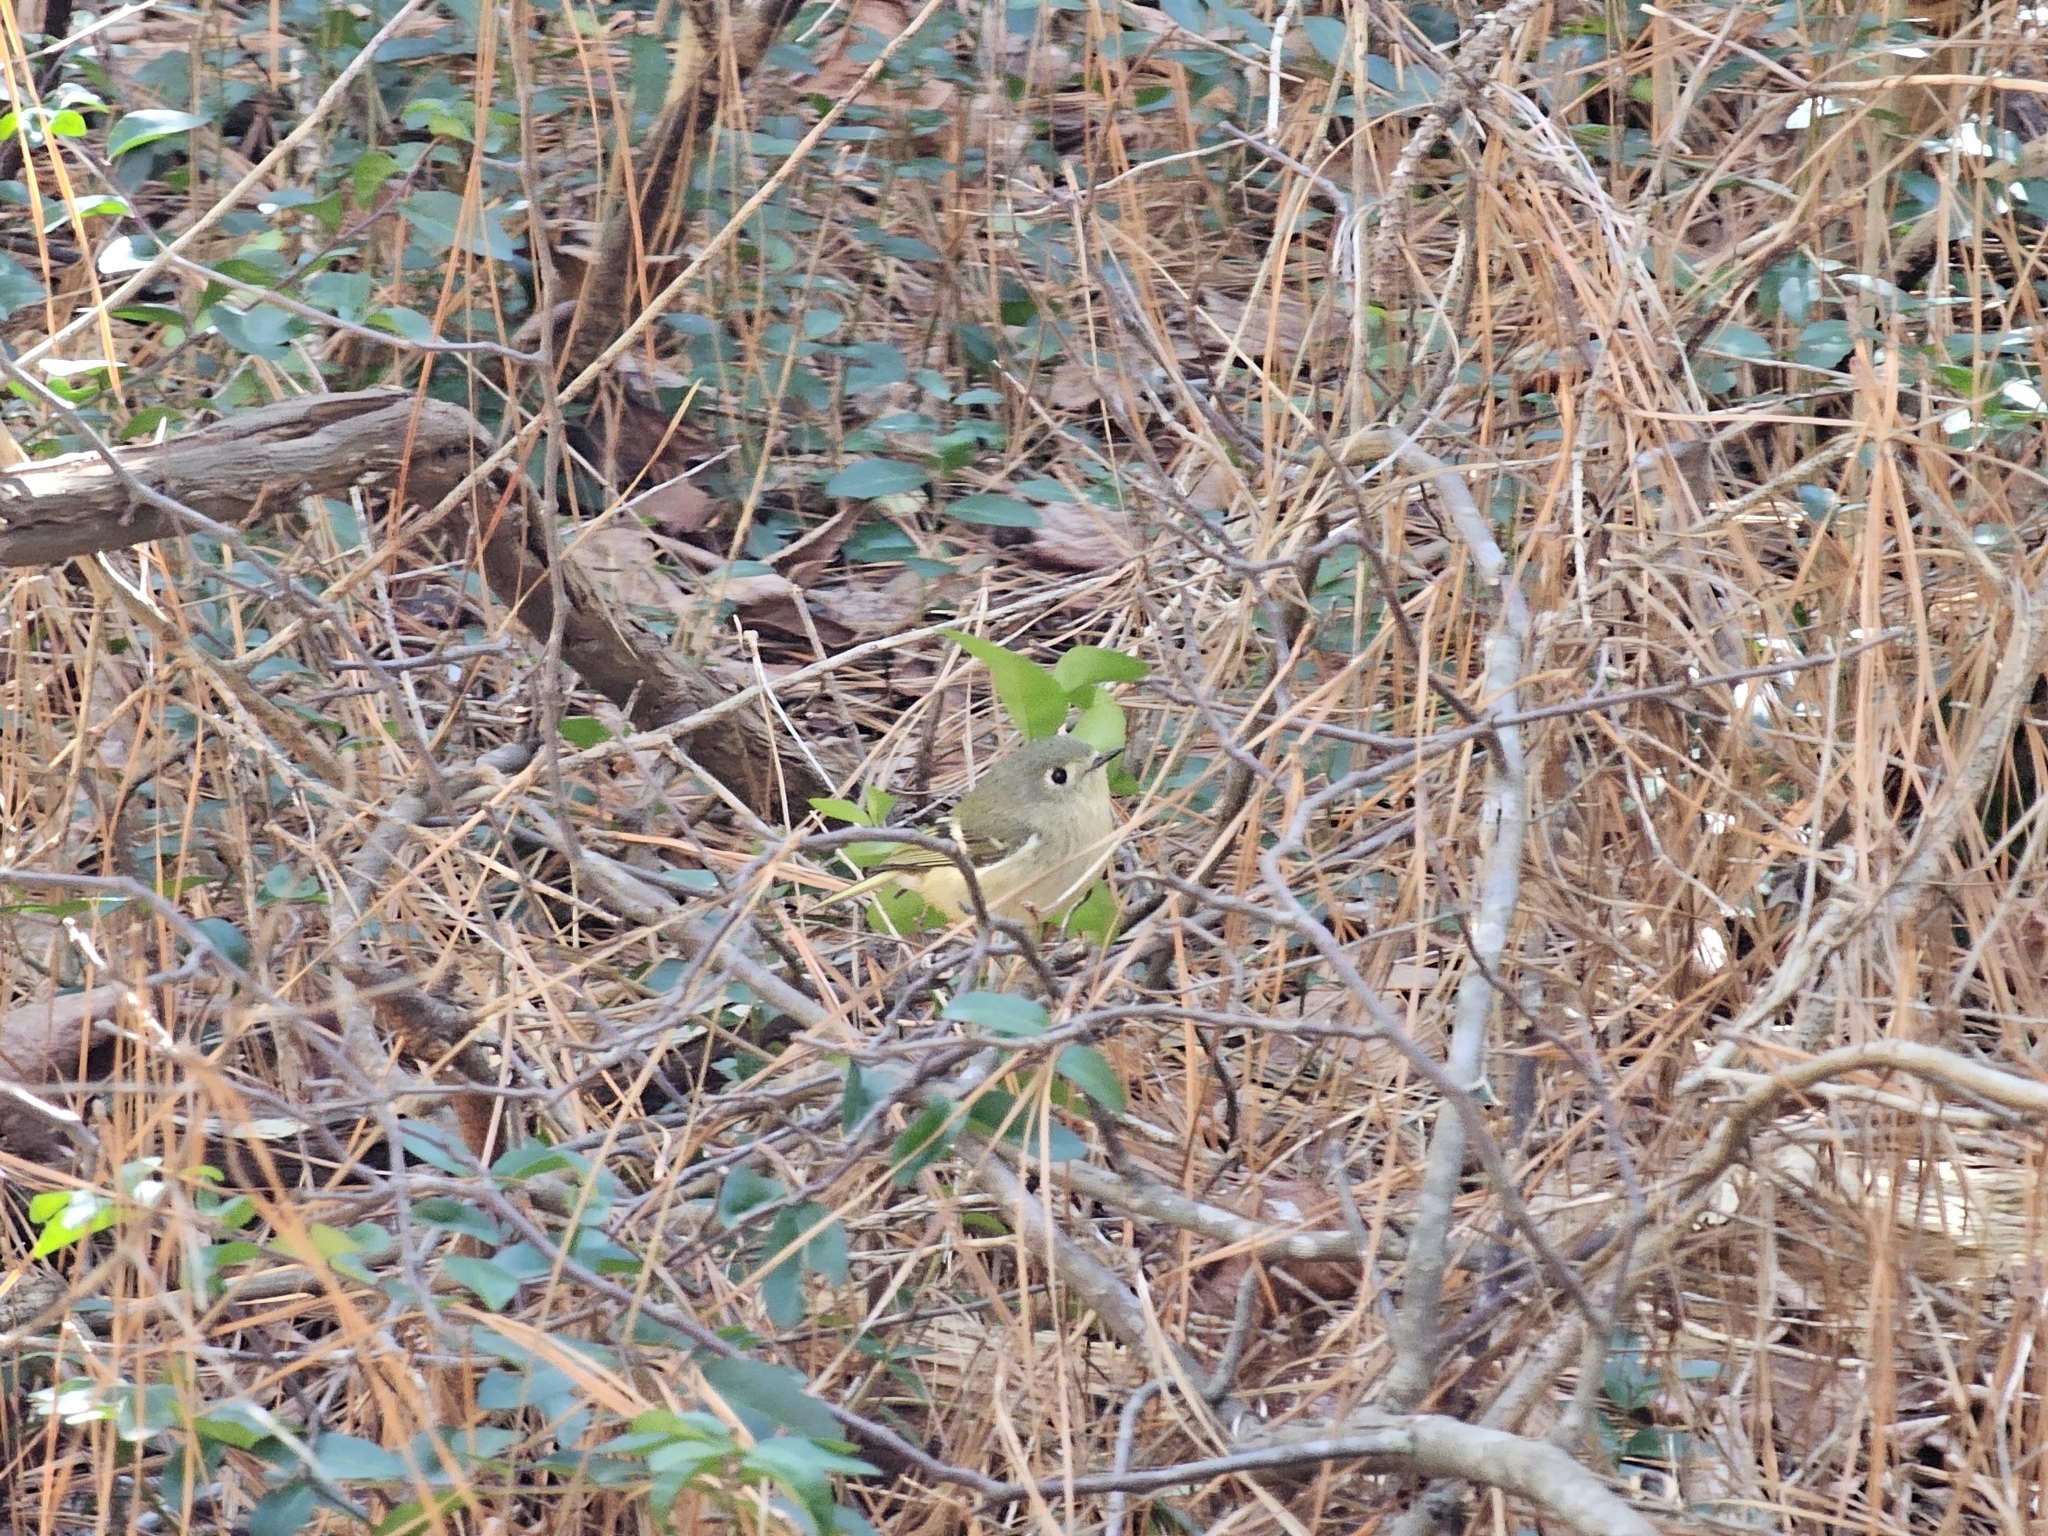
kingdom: Animalia
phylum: Chordata
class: Aves
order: Passeriformes
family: Regulidae
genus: Regulus
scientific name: Regulus calendula
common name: Ruby-crowned kinglet
